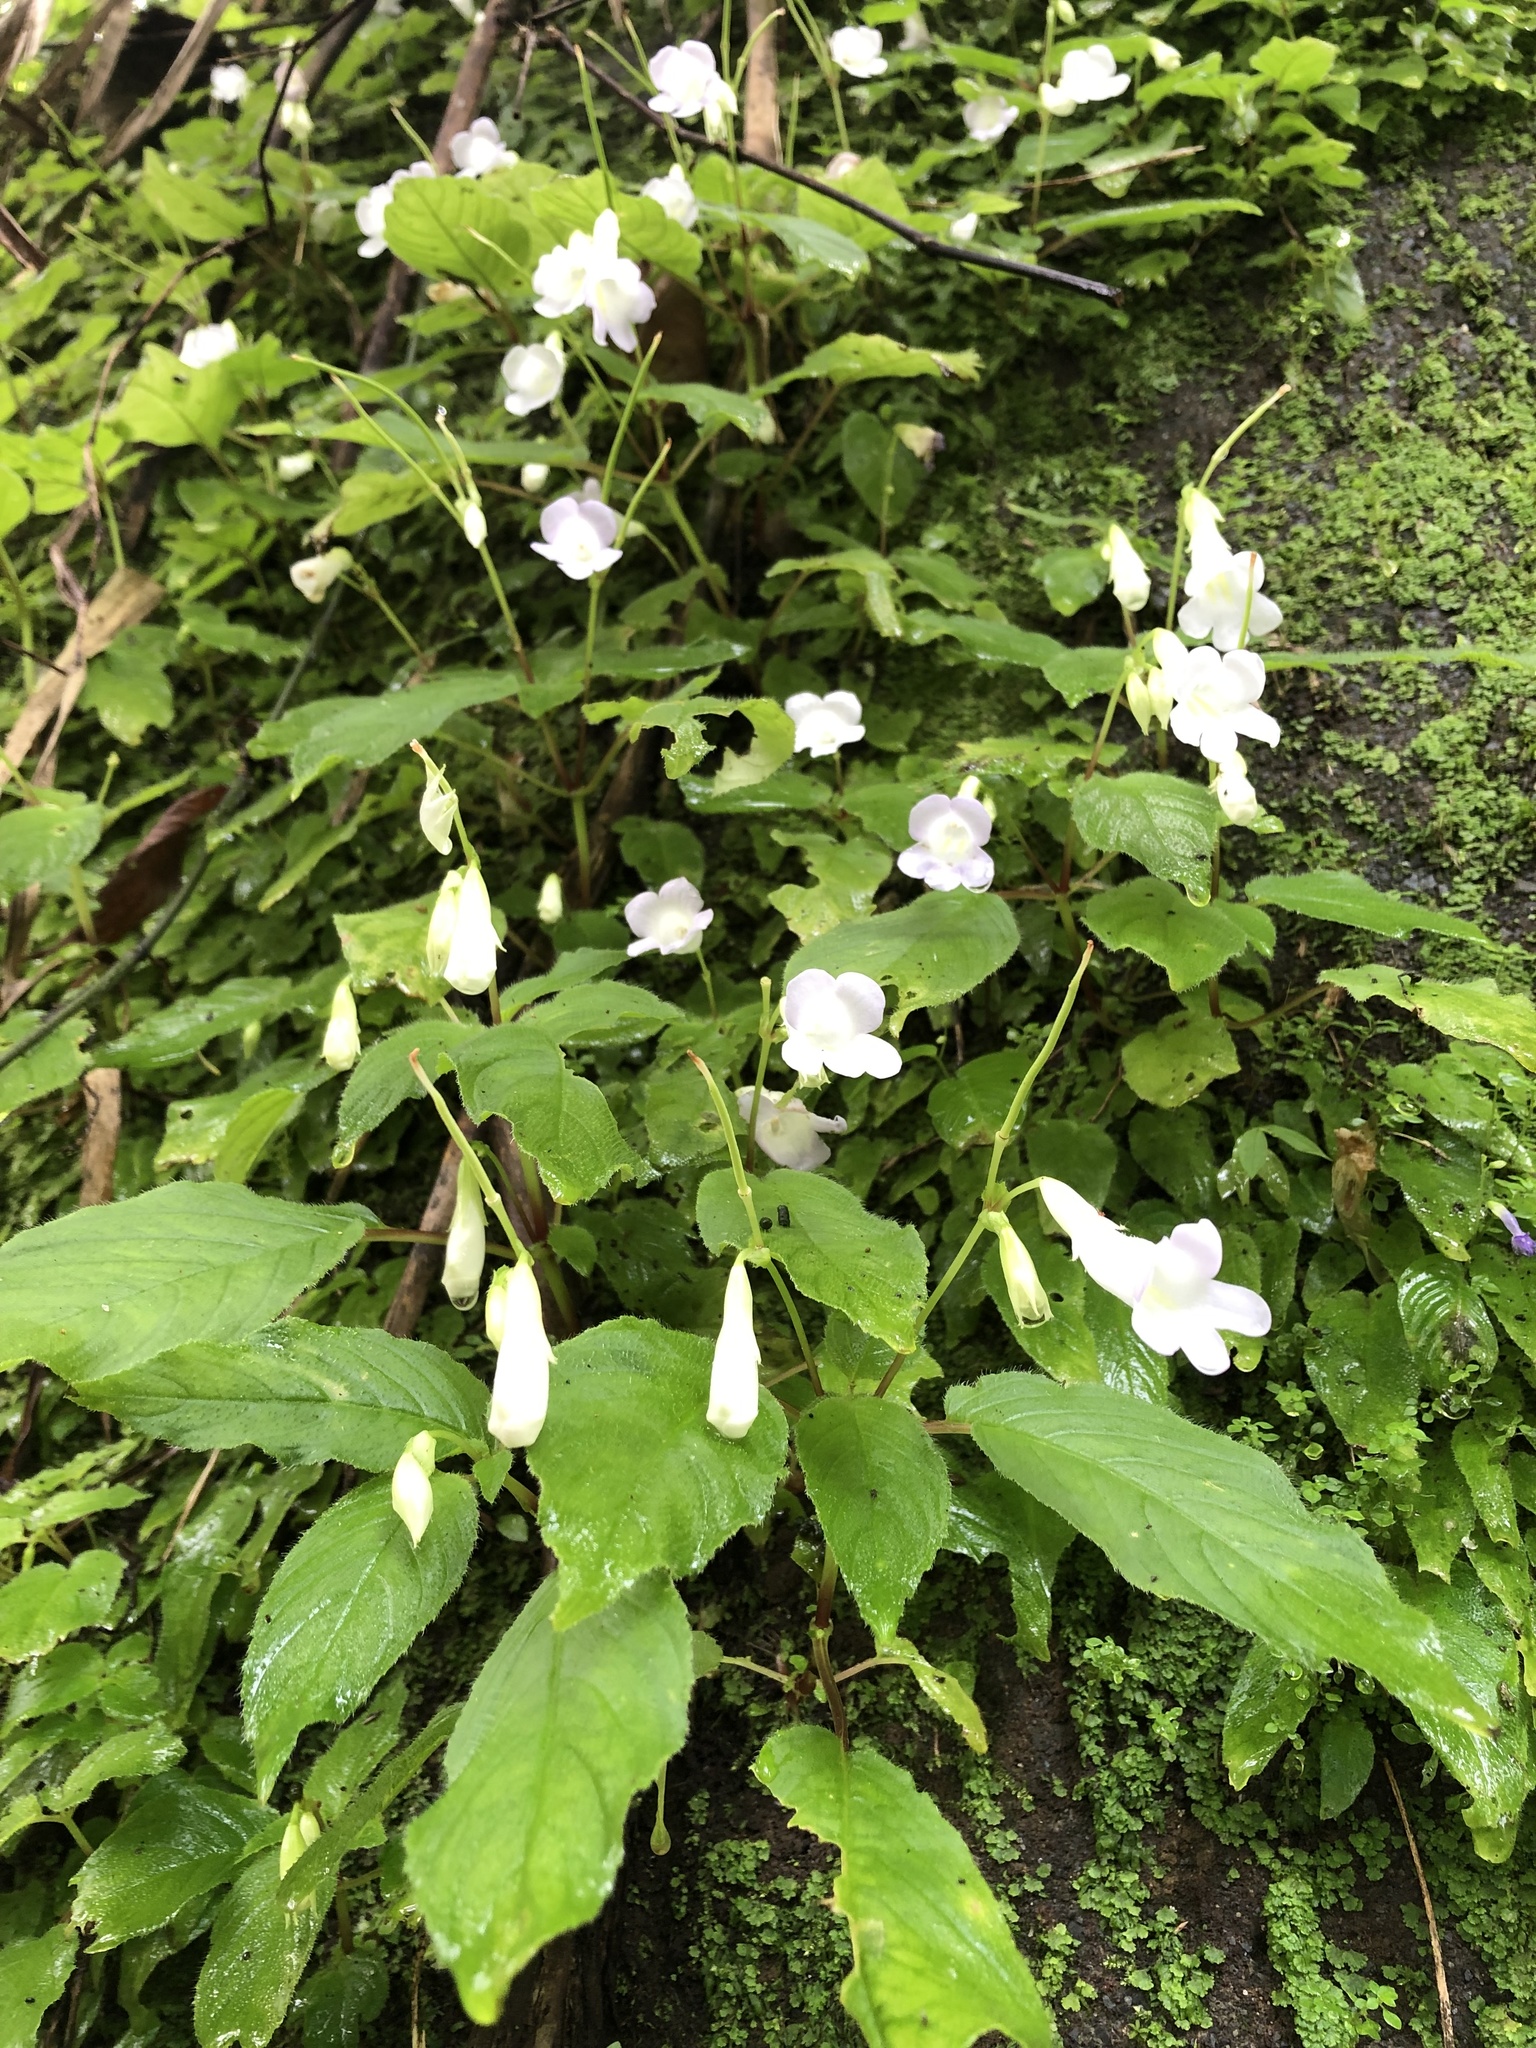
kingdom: Plantae
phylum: Tracheophyta
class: Magnoliopsida
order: Lamiales
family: Gesneriaceae
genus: Henckelia
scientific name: Henckelia anachoreta
